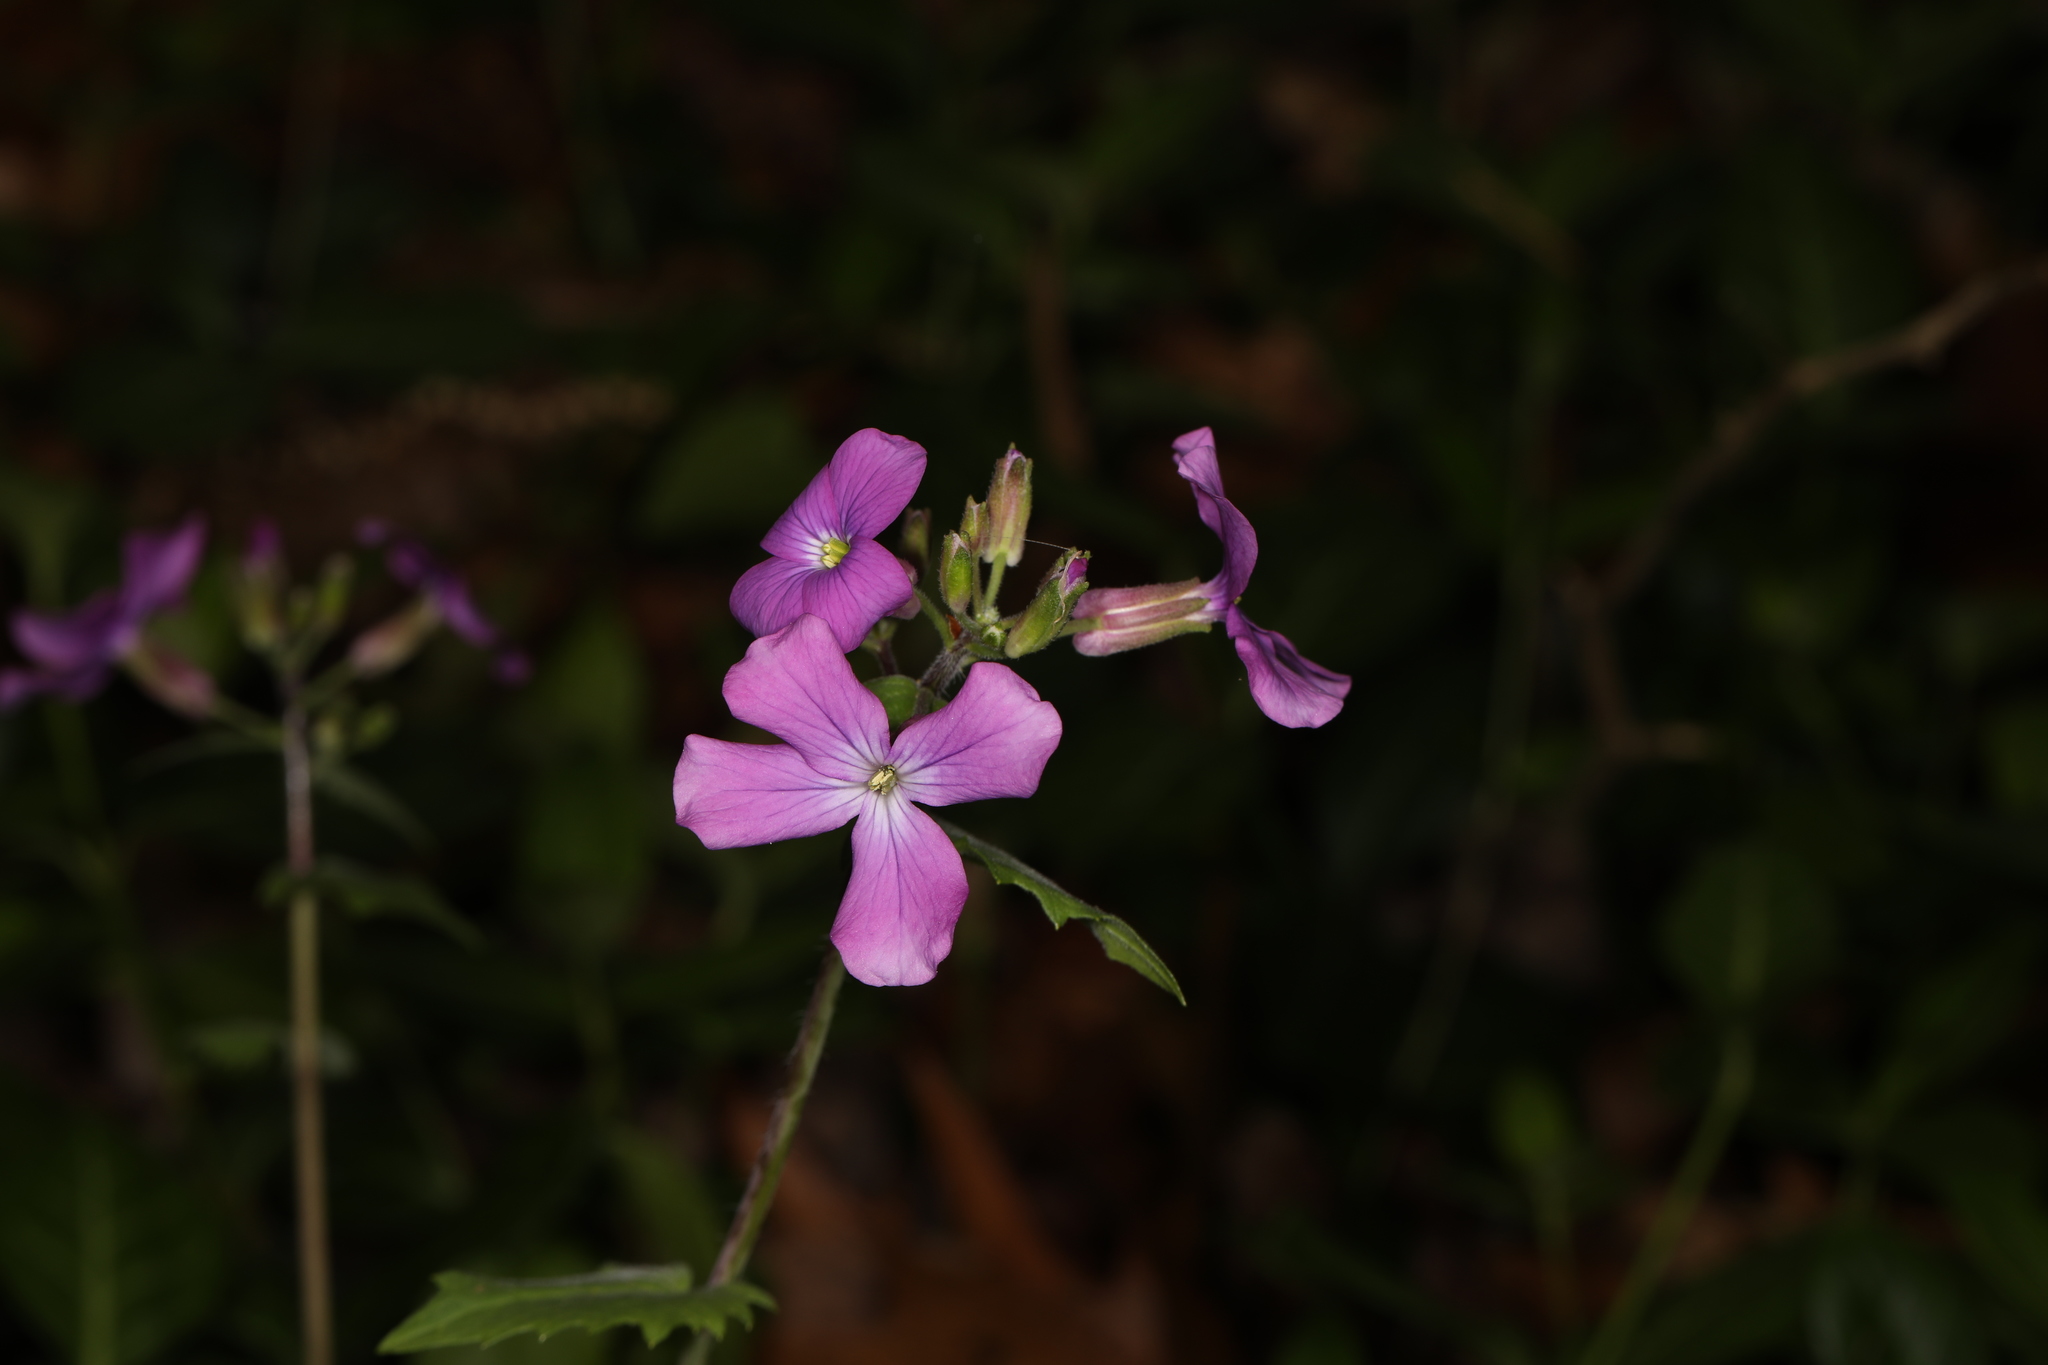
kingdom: Plantae
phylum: Tracheophyta
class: Magnoliopsida
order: Brassicales
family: Brassicaceae
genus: Lunaria
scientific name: Lunaria annua
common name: Honesty
